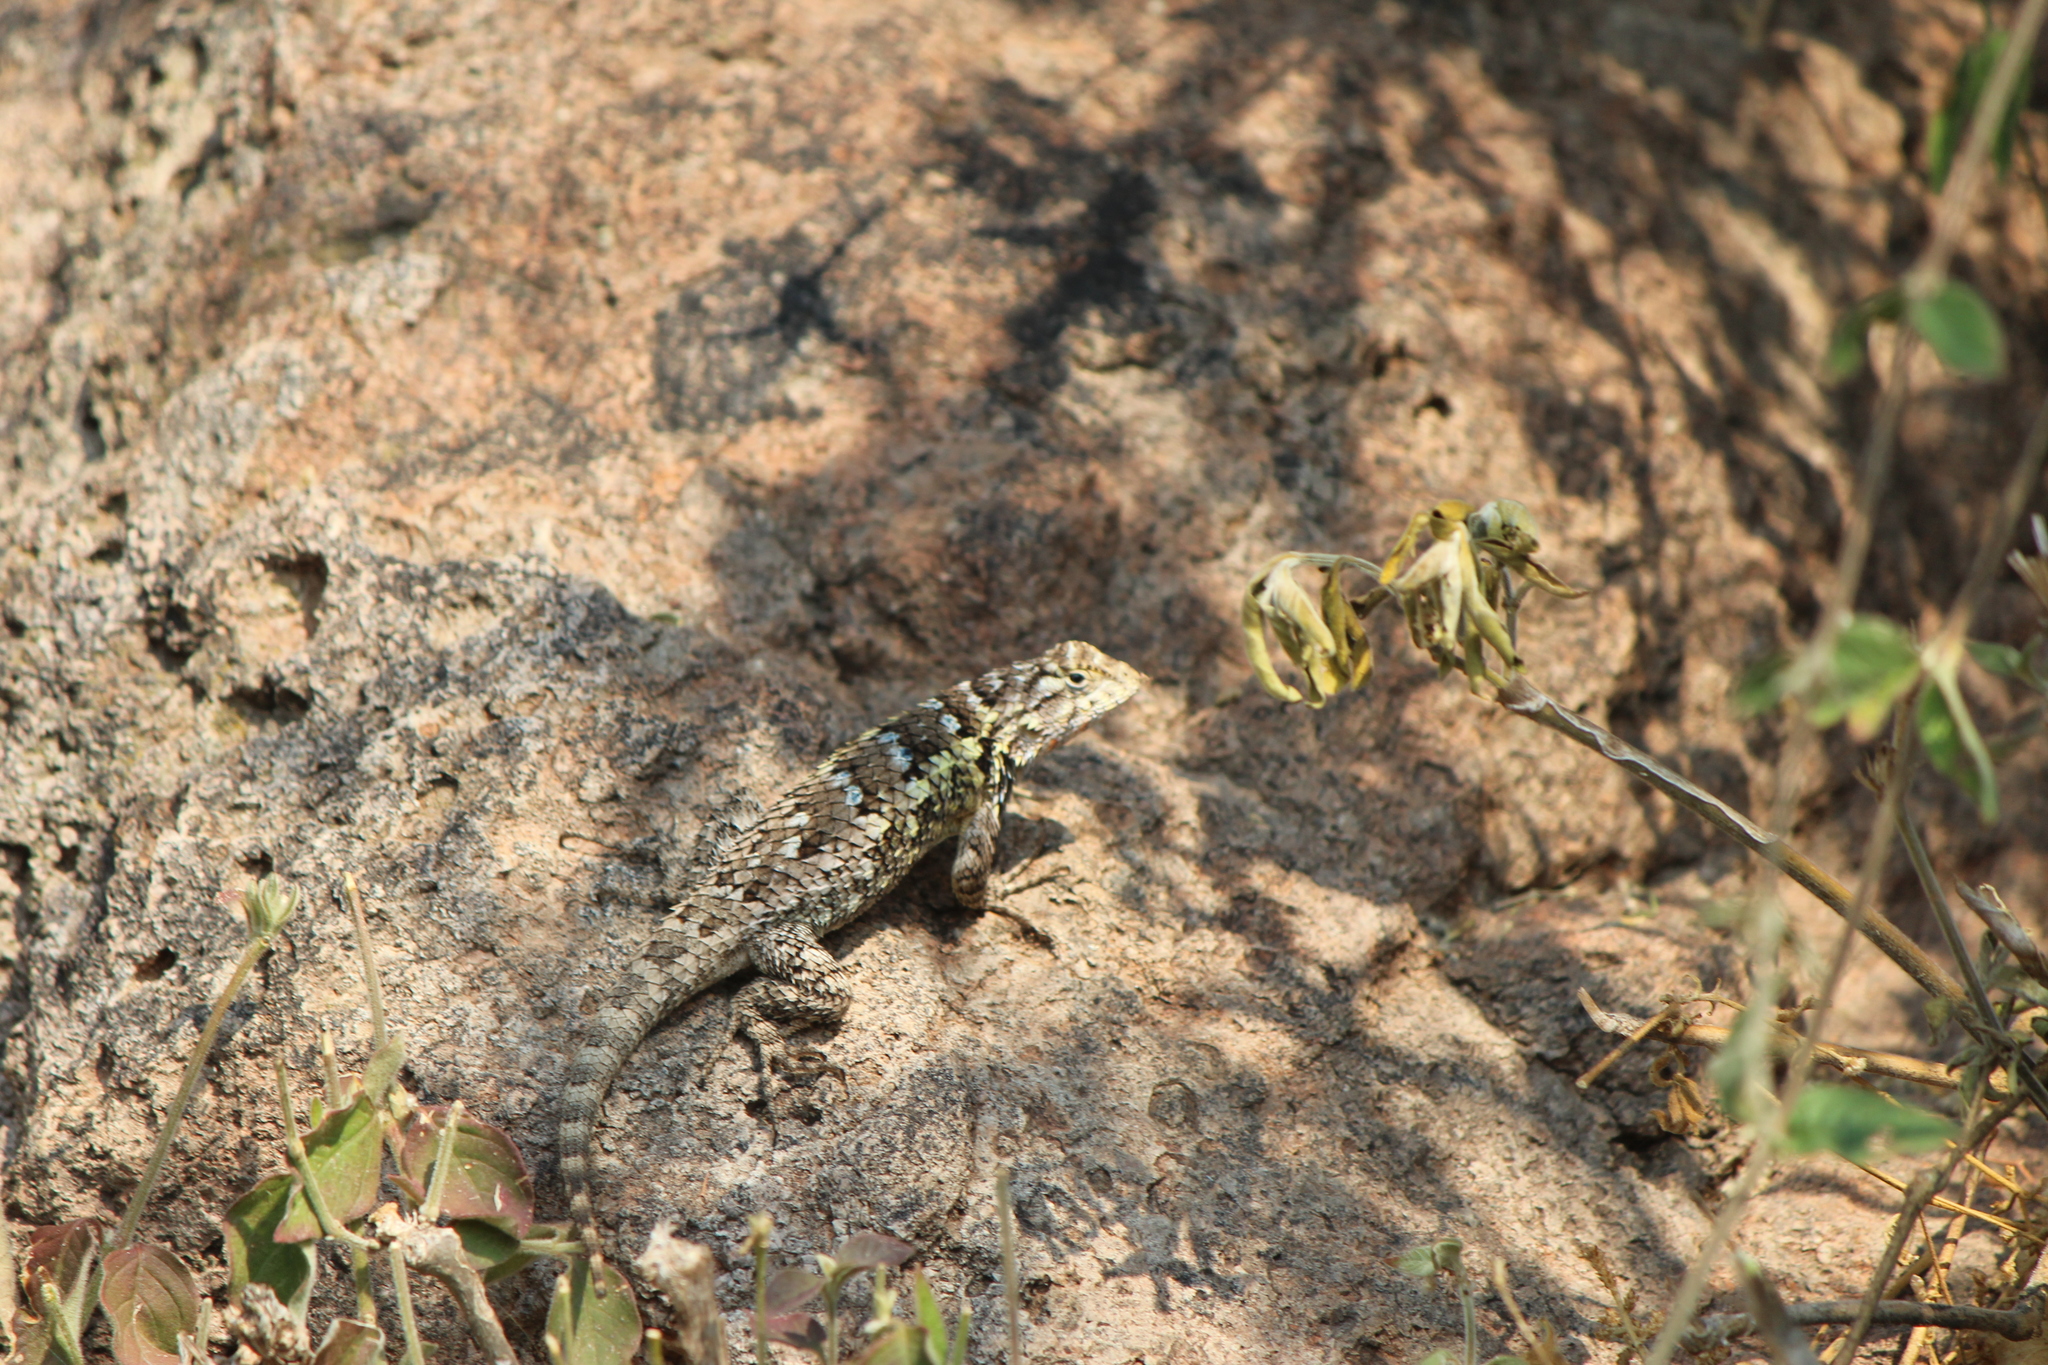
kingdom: Animalia
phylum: Chordata
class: Squamata
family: Phrynosomatidae
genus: Sceloporus
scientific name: Sceloporus spinosus
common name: Blue-spotted spiny lizard [caeruleopunctatus]
